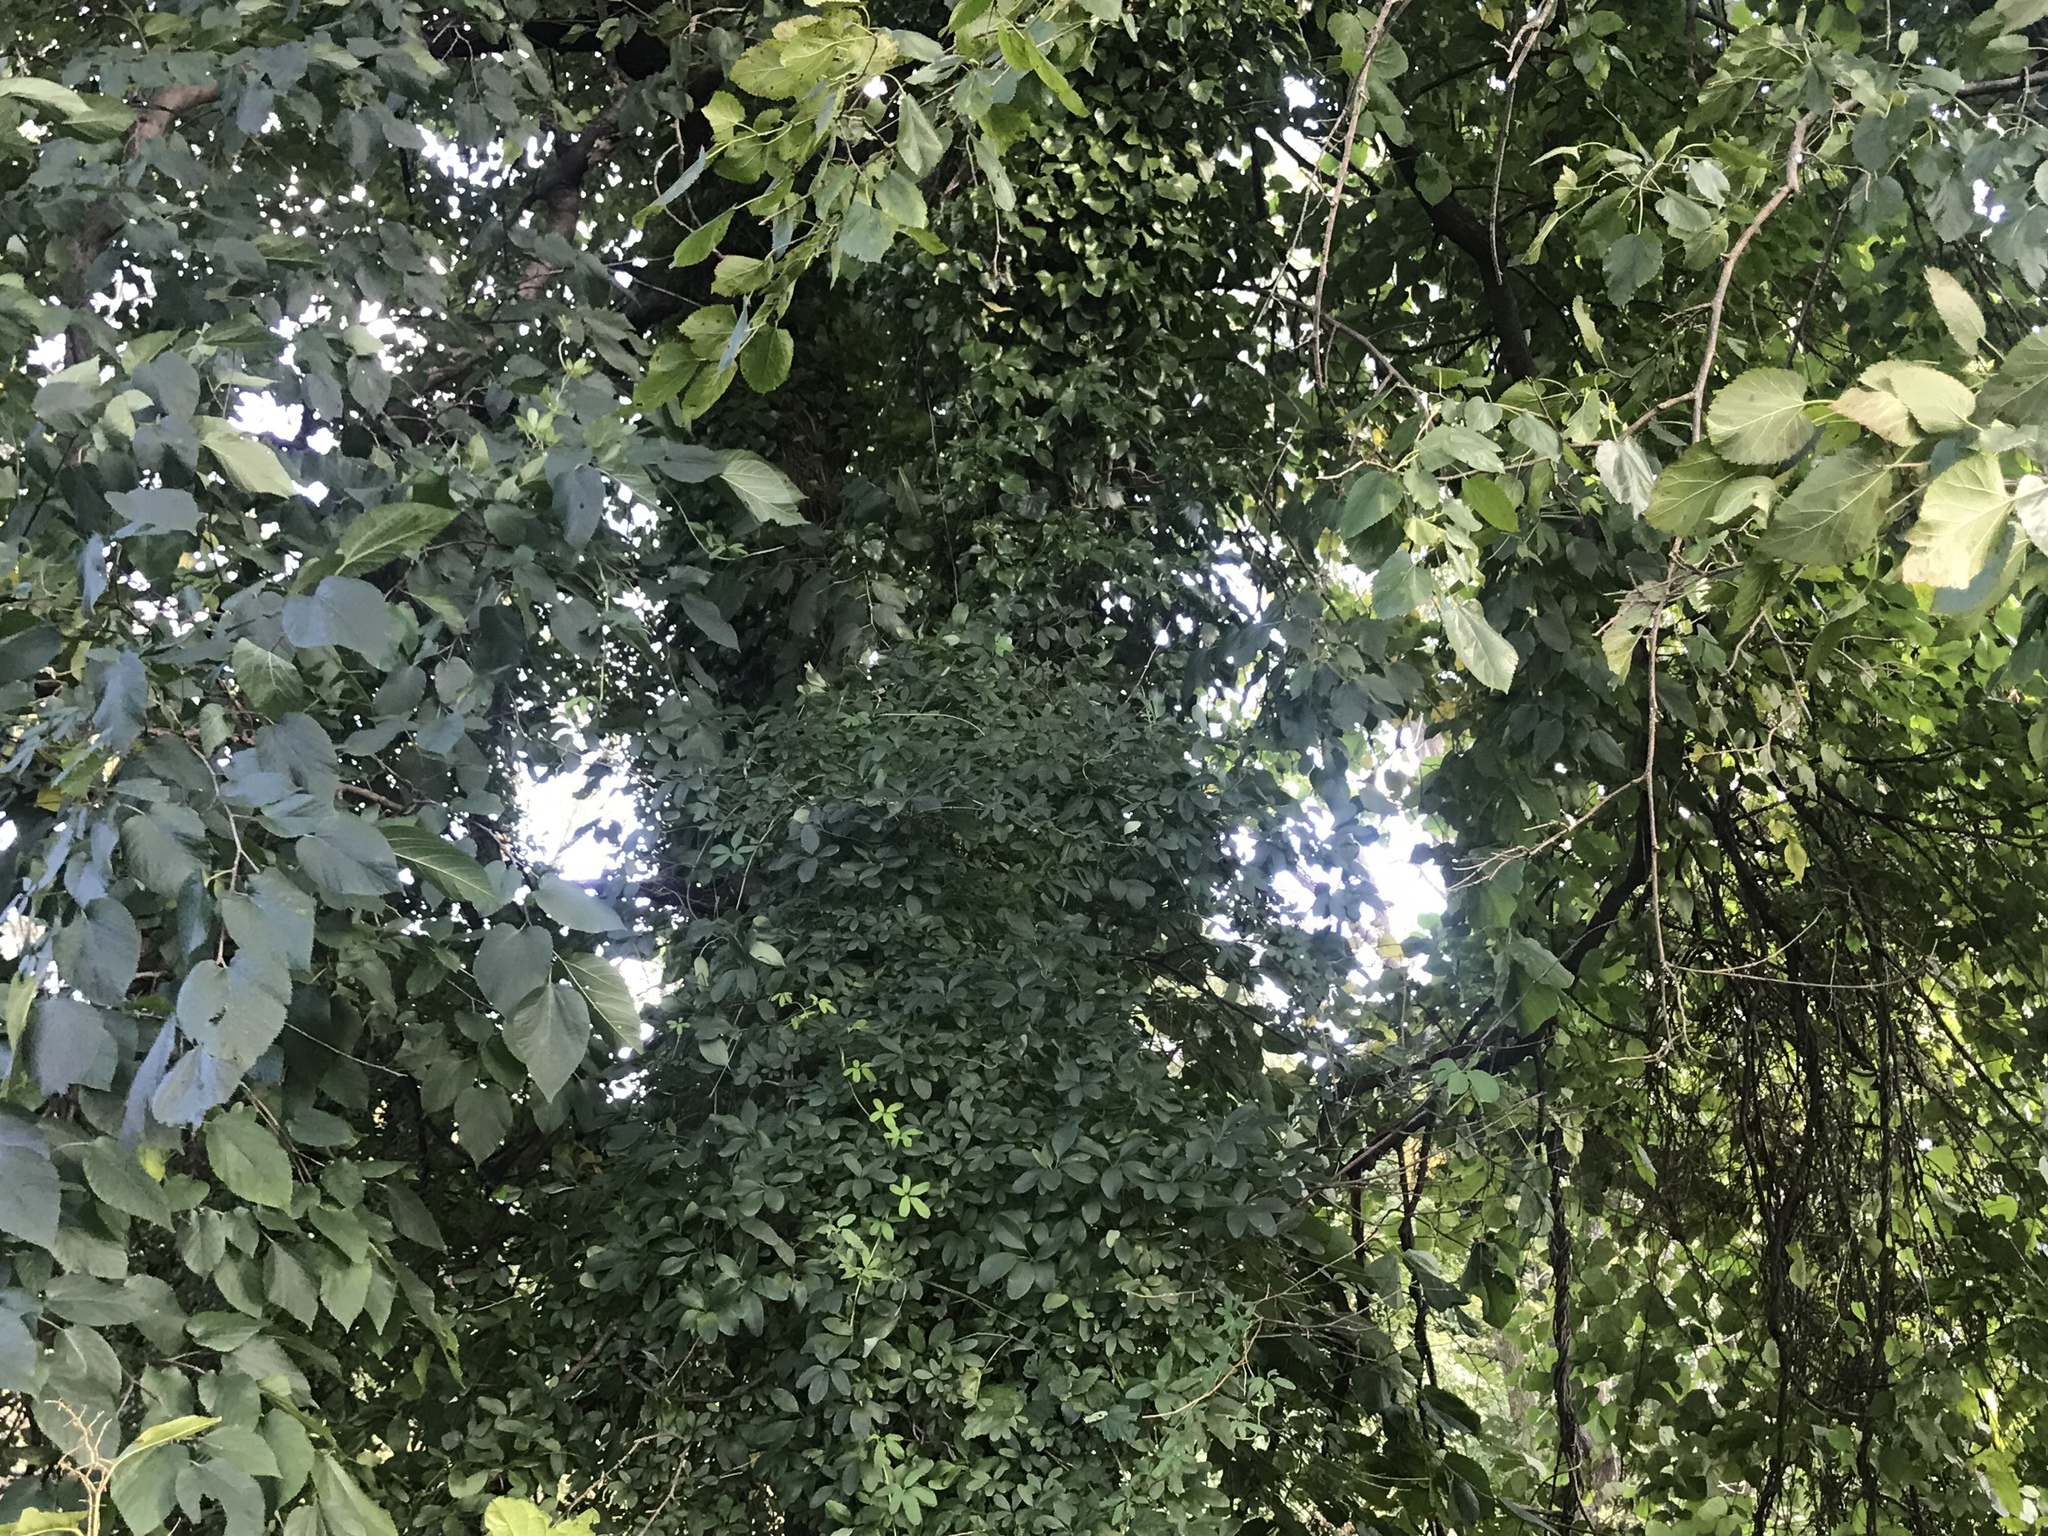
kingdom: Plantae
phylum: Tracheophyta
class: Magnoliopsida
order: Ranunculales
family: Lardizabalaceae
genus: Akebia
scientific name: Akebia quinata
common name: Five-leaf akebia
